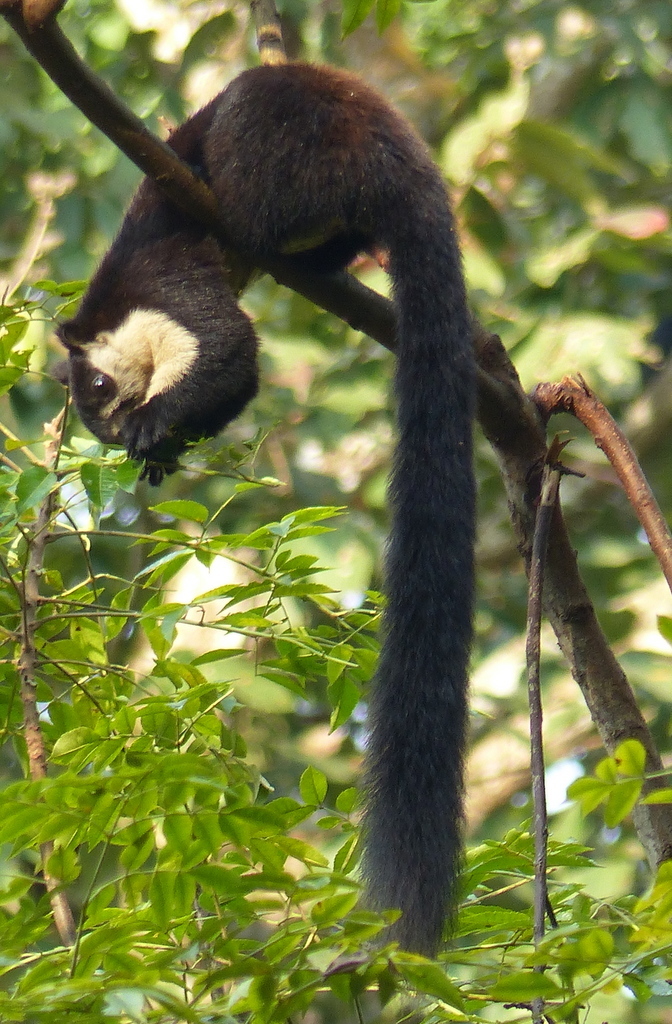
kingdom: Animalia
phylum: Chordata
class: Mammalia
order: Rodentia
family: Sciuridae
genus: Ratufa
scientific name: Ratufa bicolor
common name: Black giant squirrel
